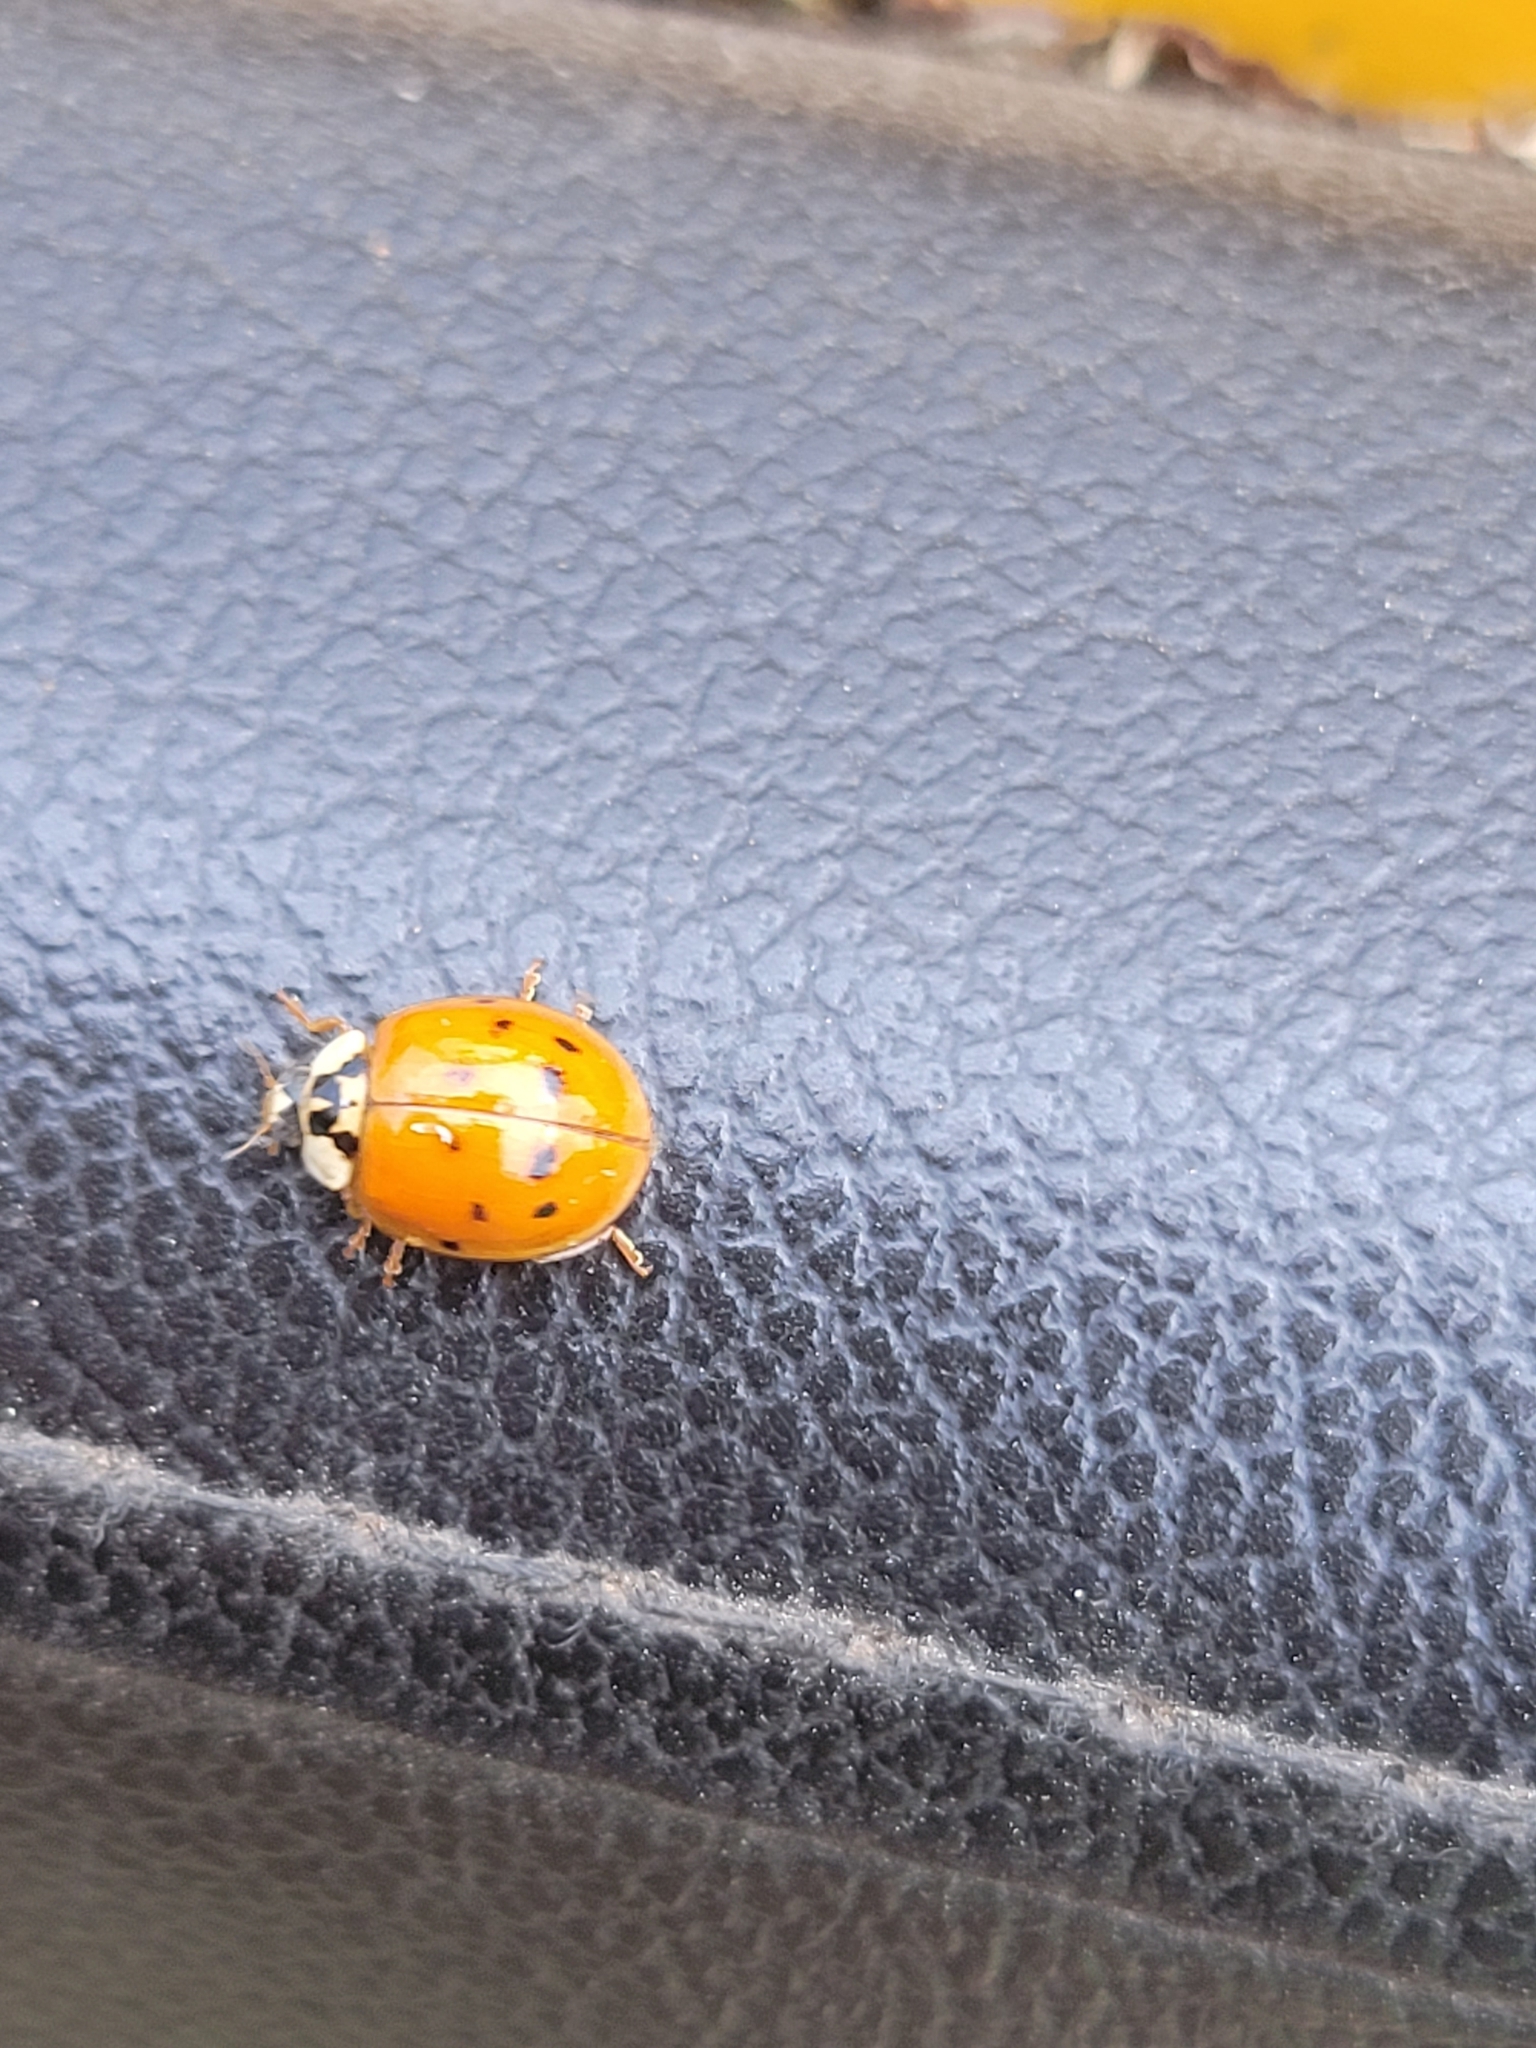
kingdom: Animalia
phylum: Arthropoda
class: Insecta
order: Coleoptera
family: Coccinellidae
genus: Harmonia
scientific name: Harmonia axyridis
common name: Harlequin ladybird
